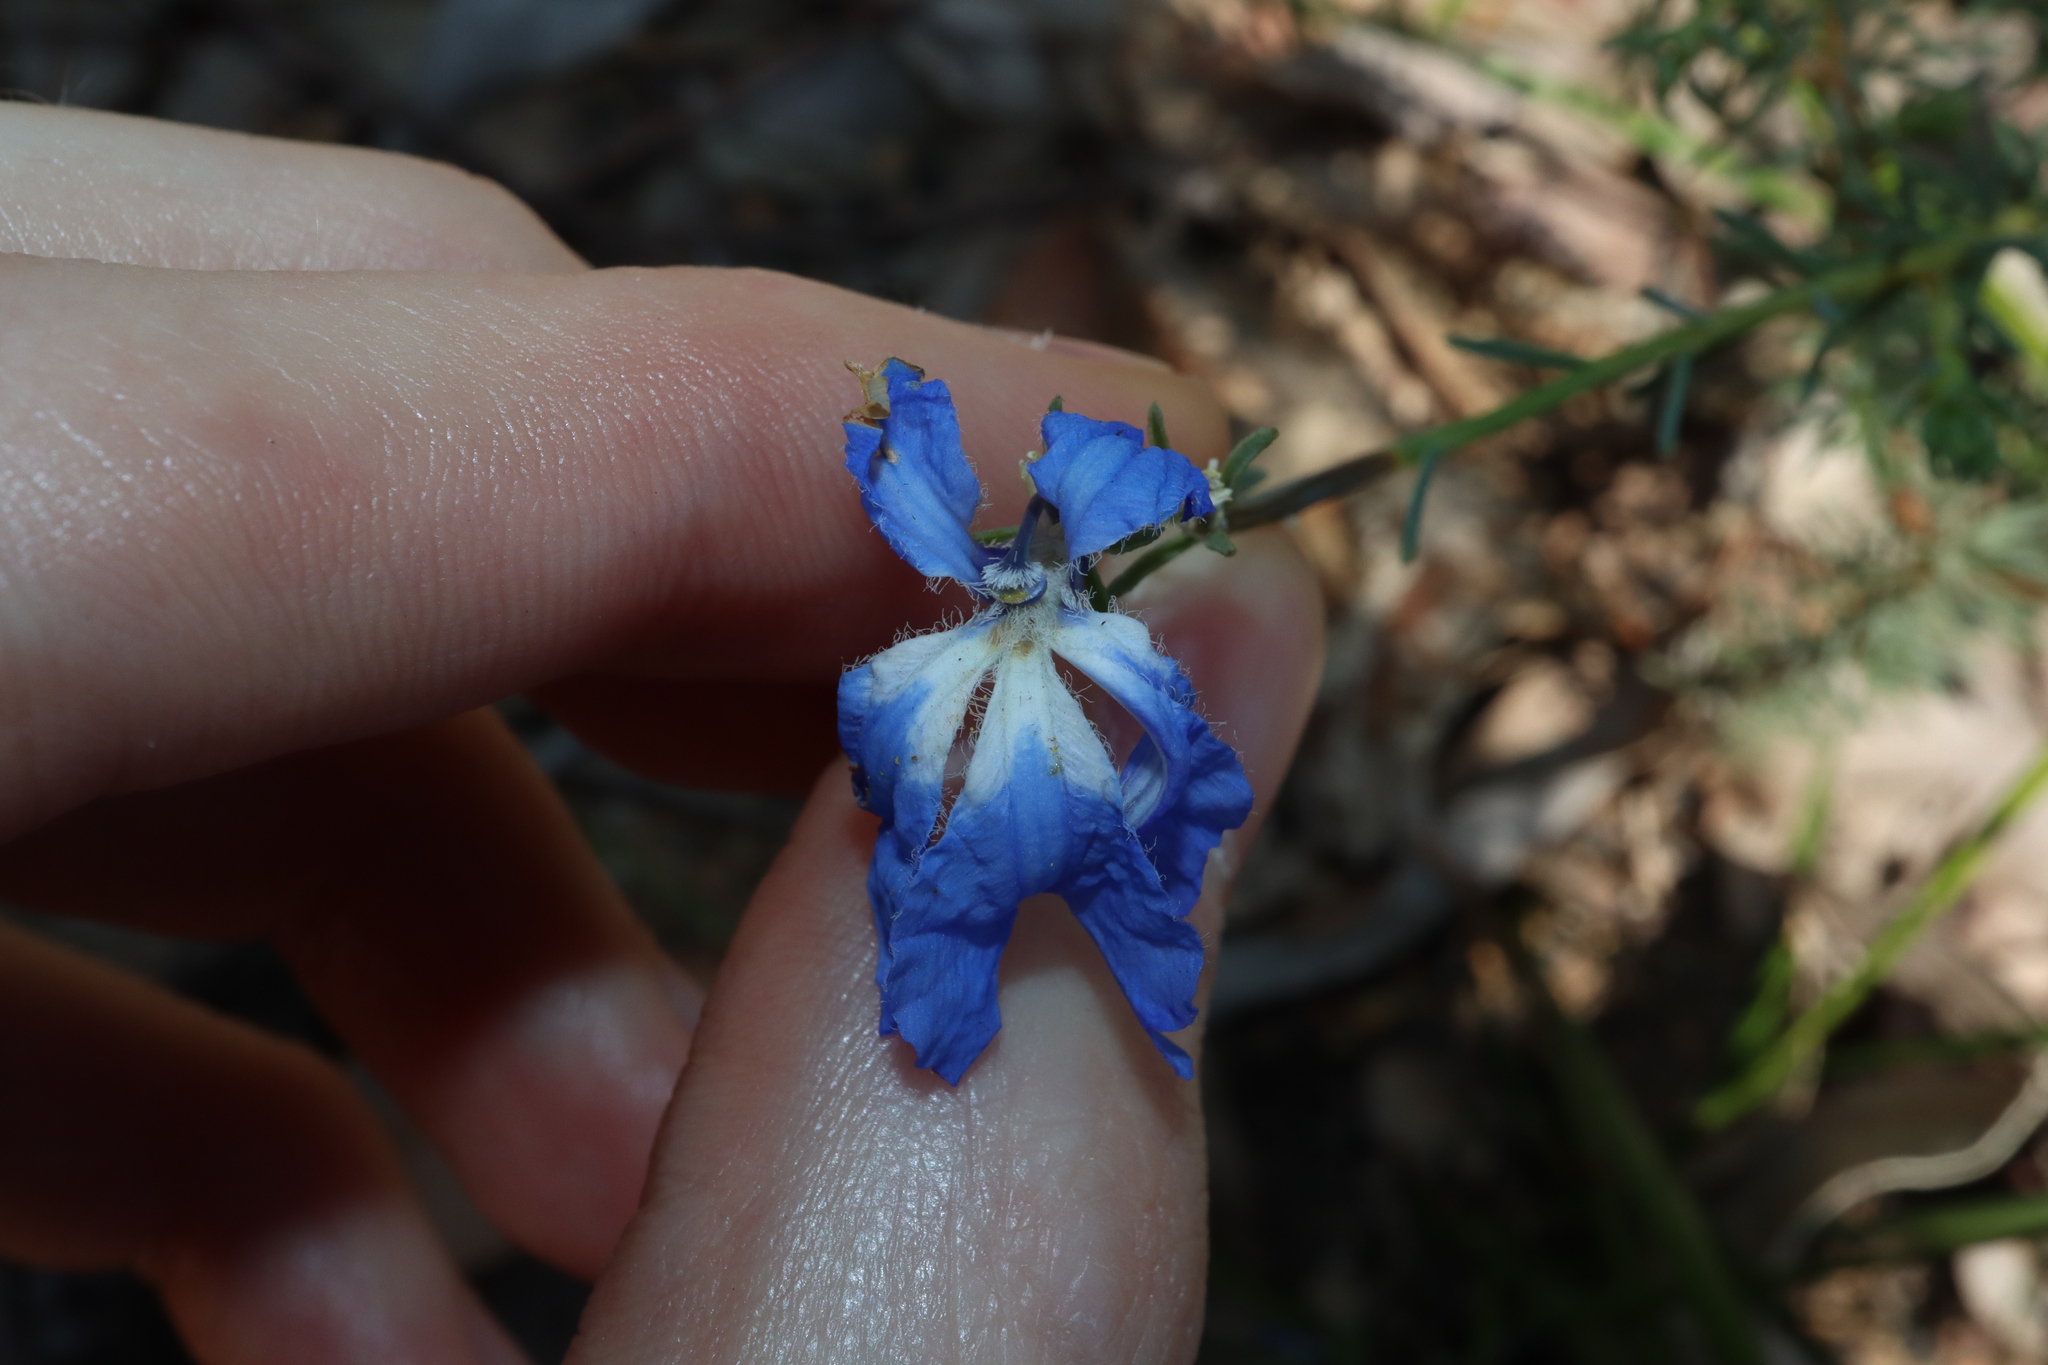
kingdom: Plantae
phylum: Tracheophyta
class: Magnoliopsida
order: Asterales
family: Goodeniaceae
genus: Lechenaultia
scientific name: Lechenaultia biloba
